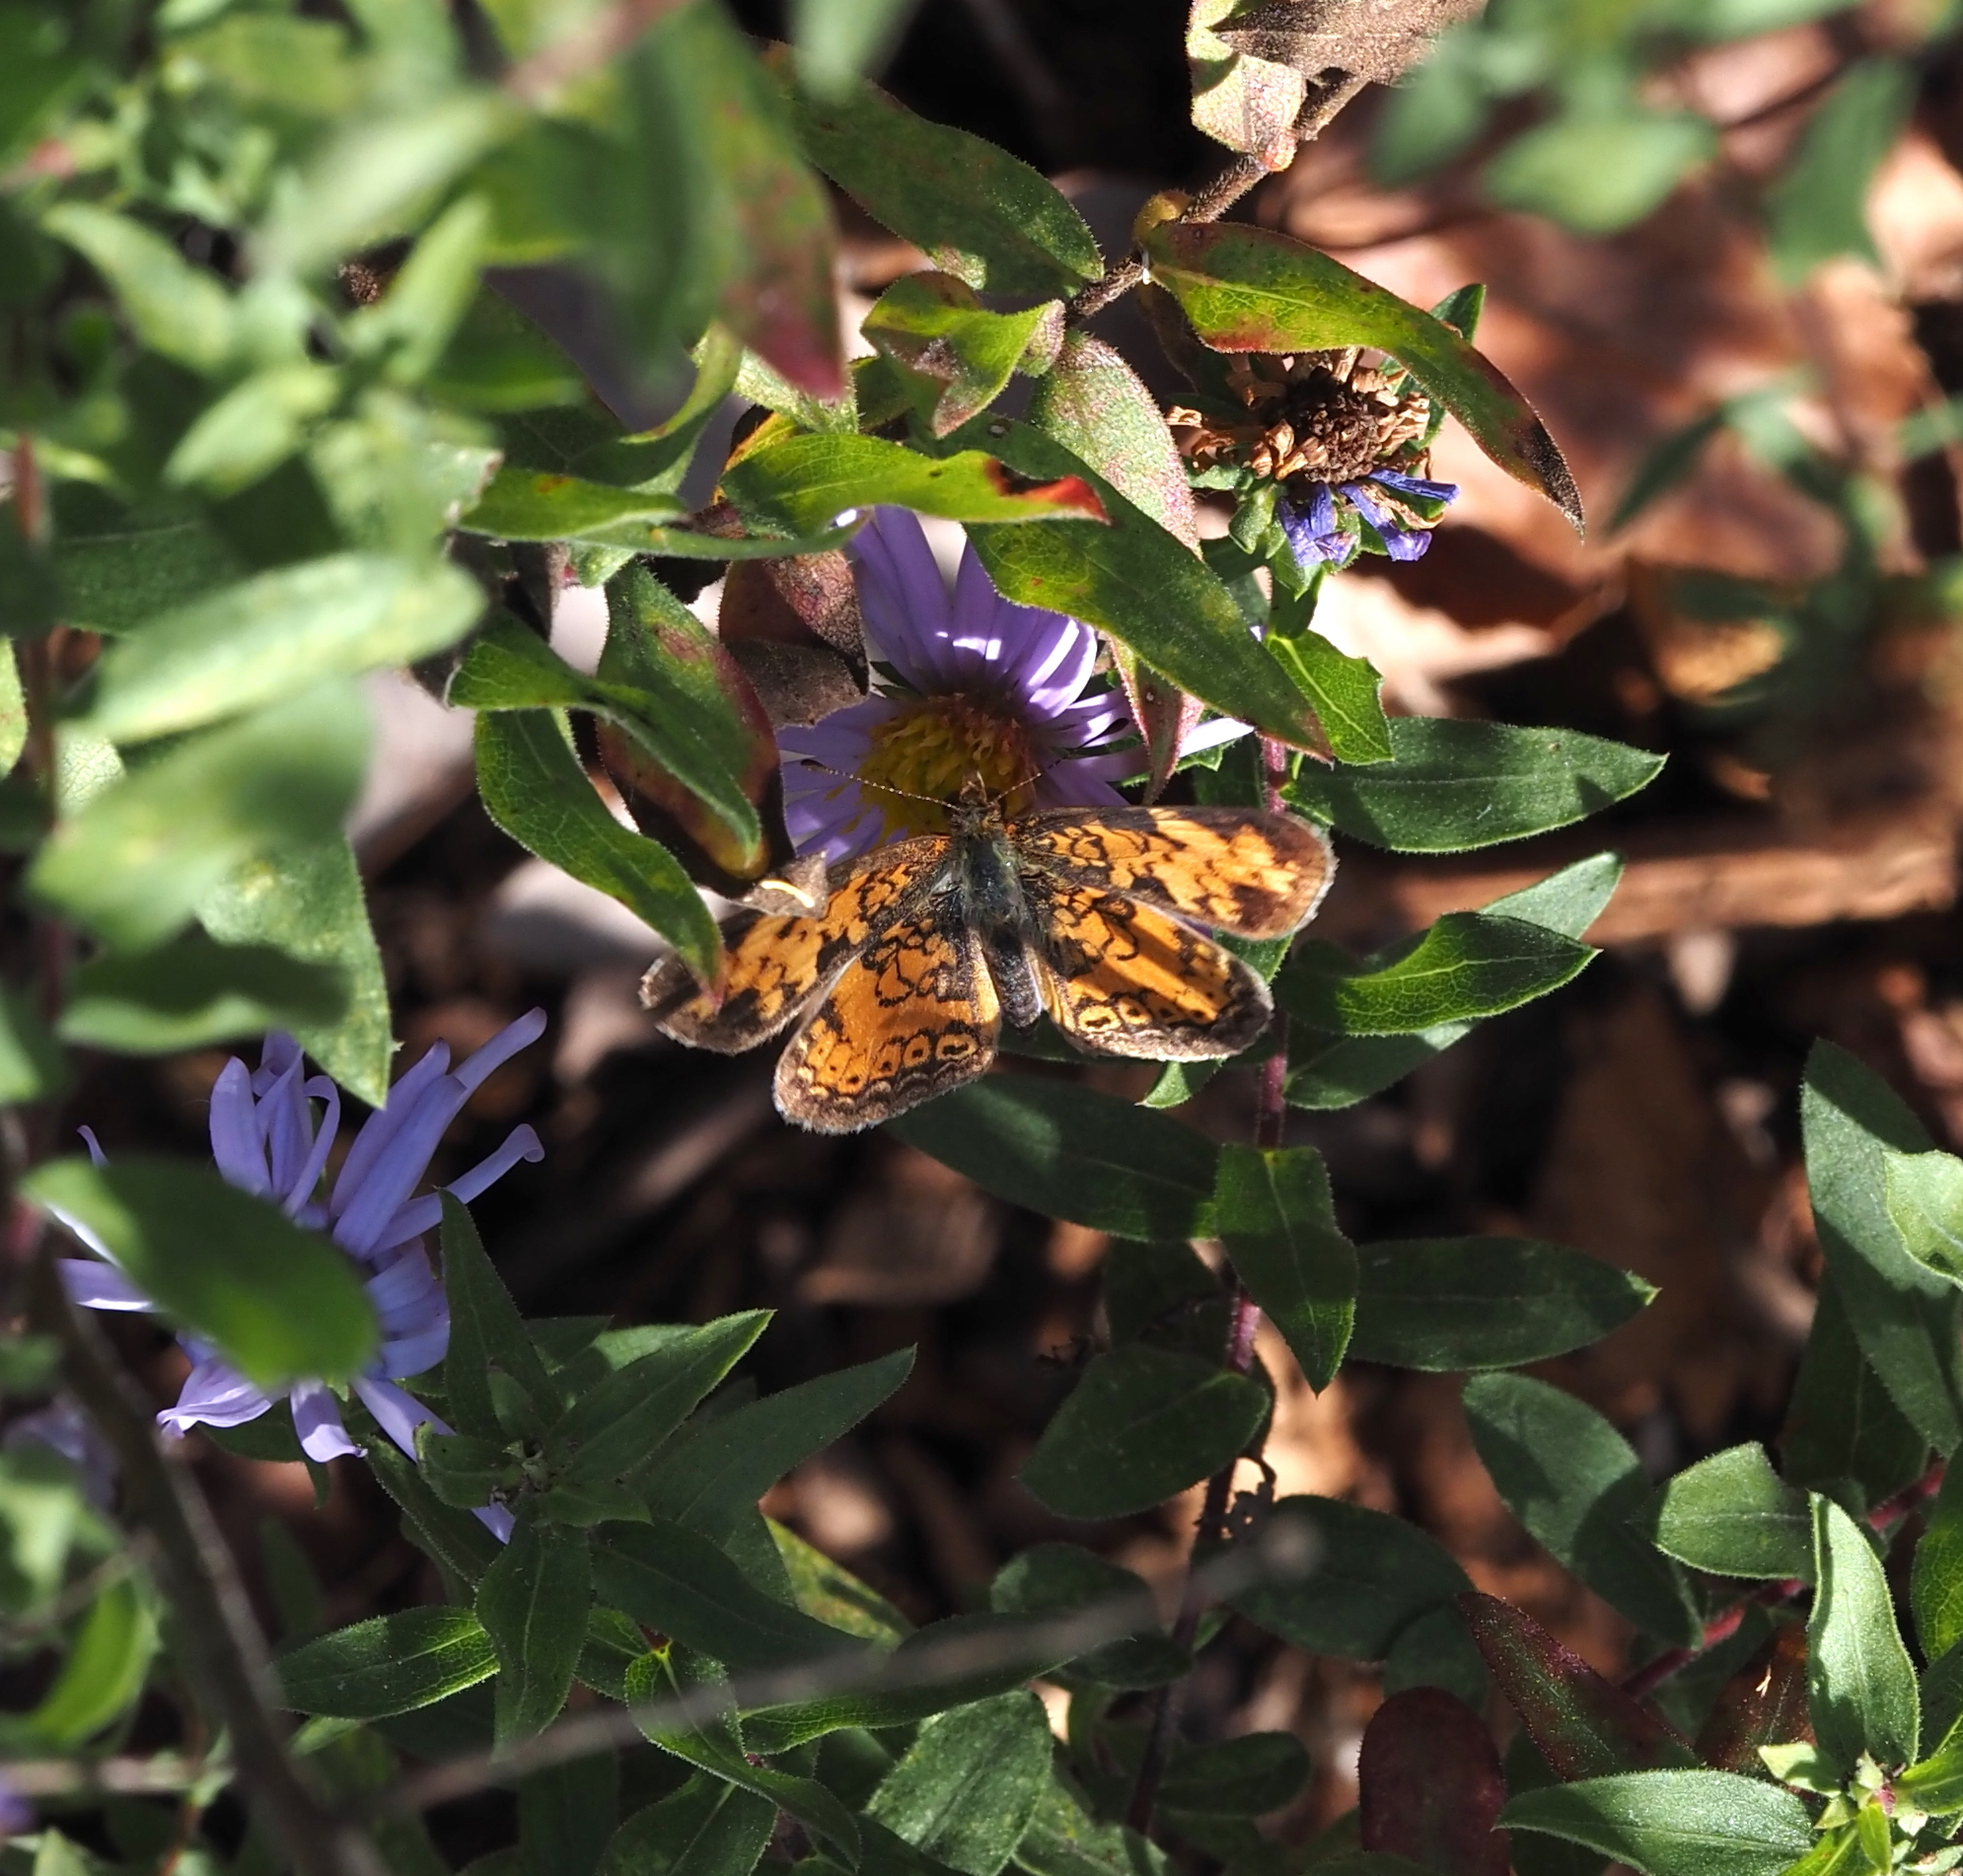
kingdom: Animalia
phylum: Arthropoda
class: Insecta
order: Lepidoptera
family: Nymphalidae
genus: Phyciodes
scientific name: Phyciodes tharos
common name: Pearl crescent
